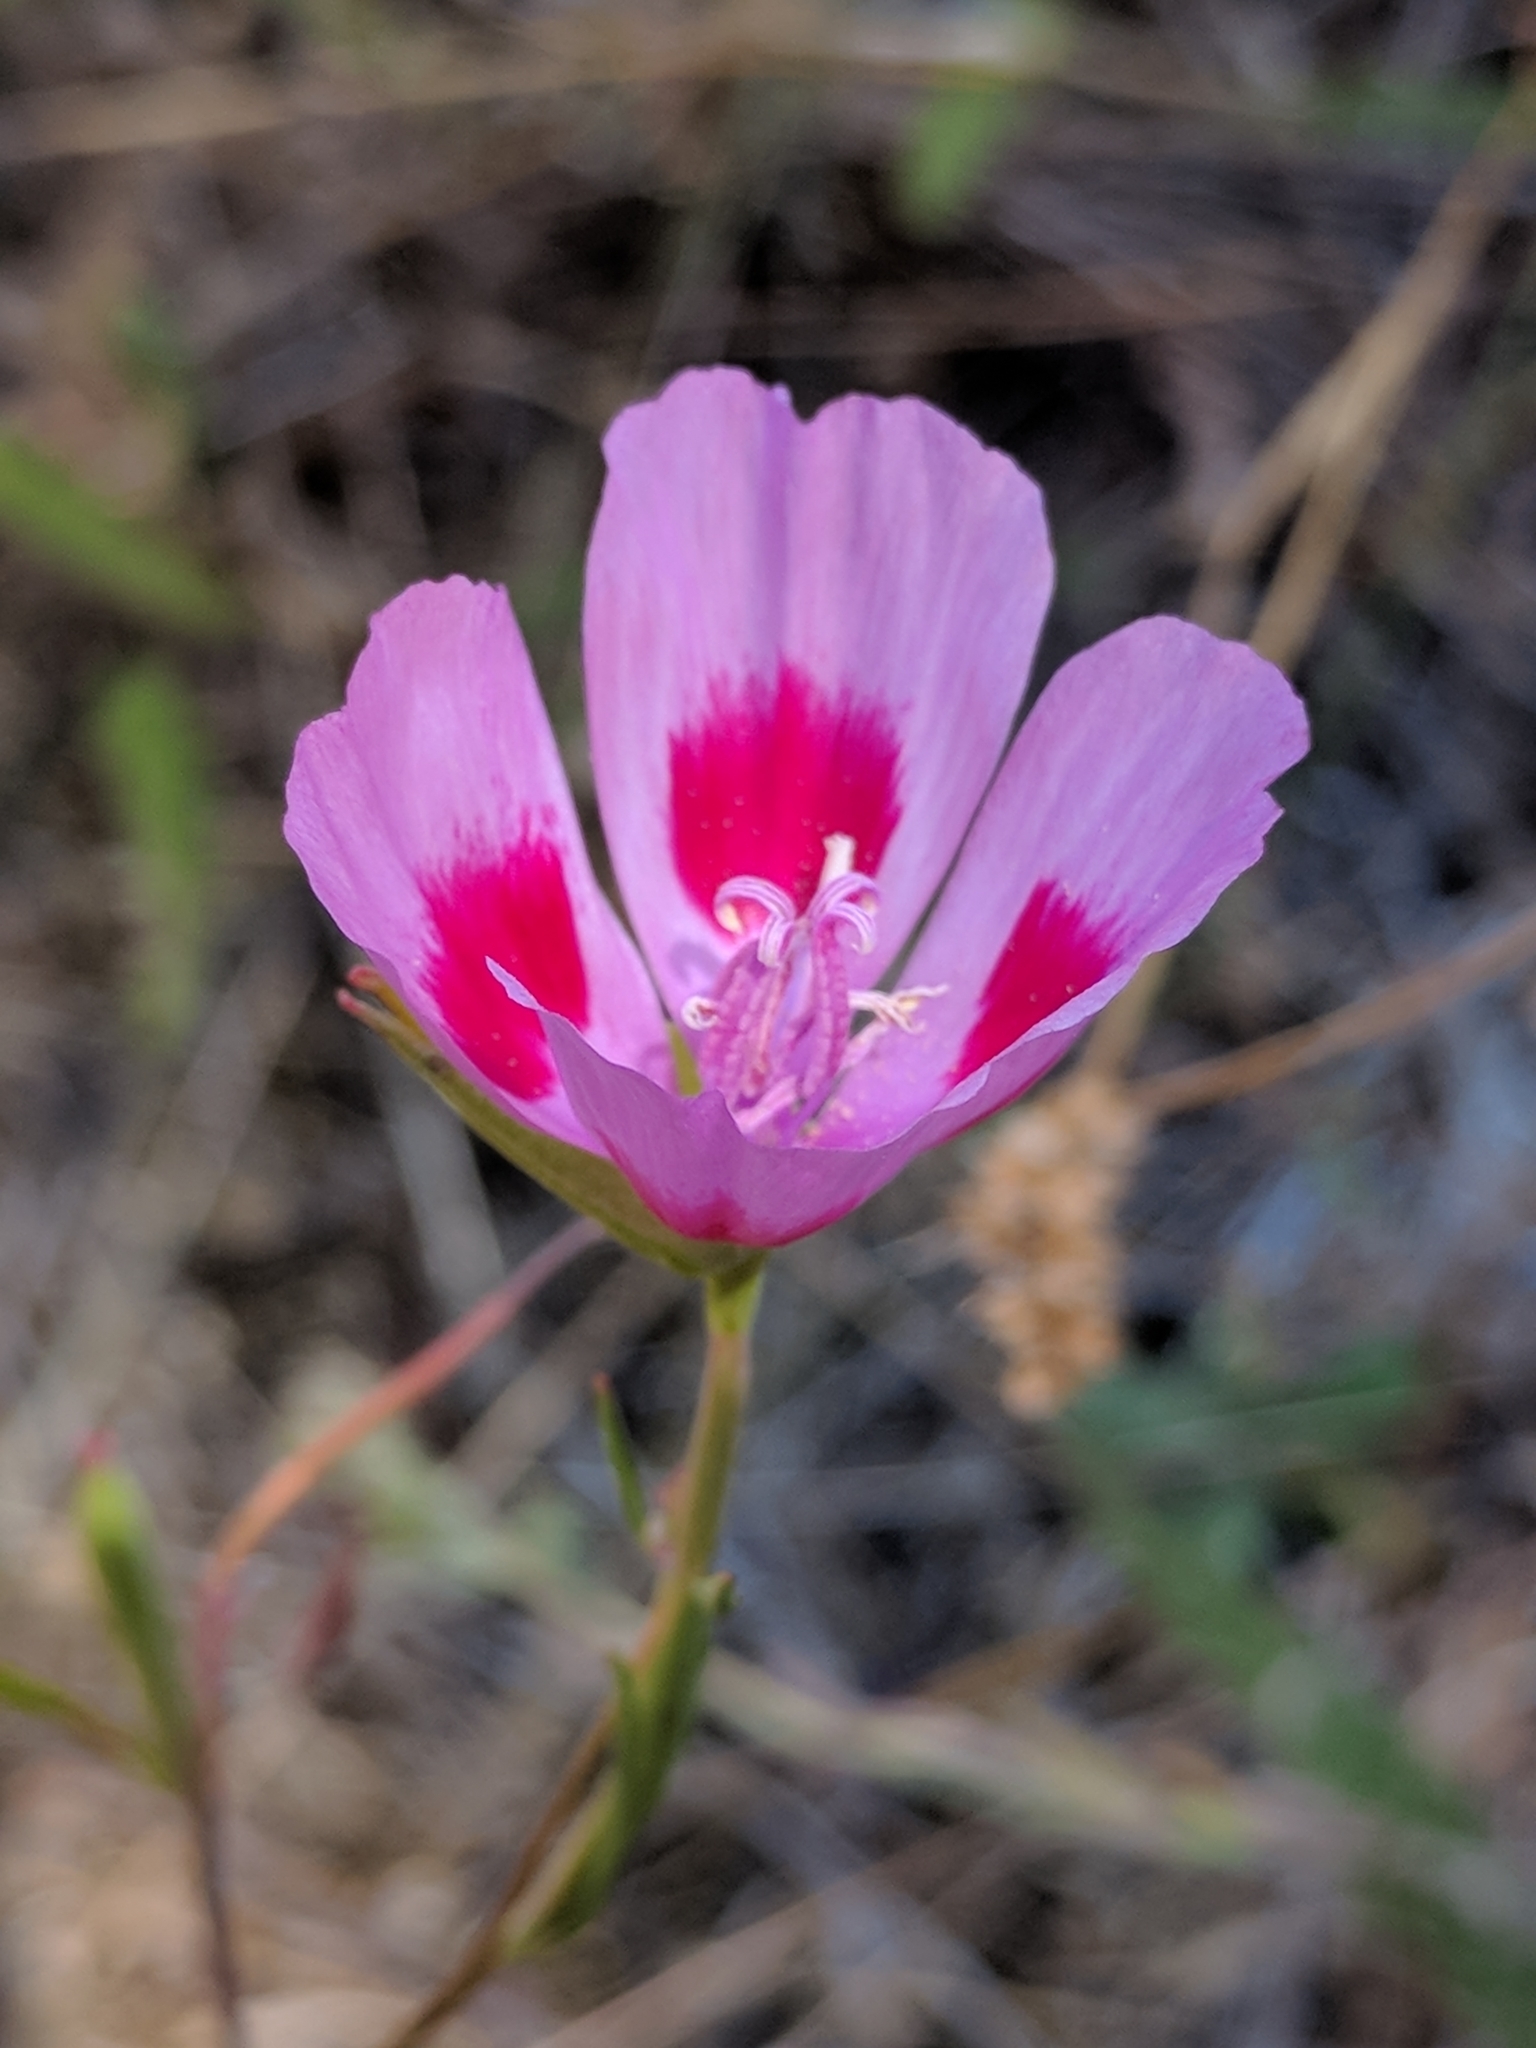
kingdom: Plantae
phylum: Tracheophyta
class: Magnoliopsida
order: Myrtales
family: Onagraceae
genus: Clarkia
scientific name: Clarkia amoena
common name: Godetia
